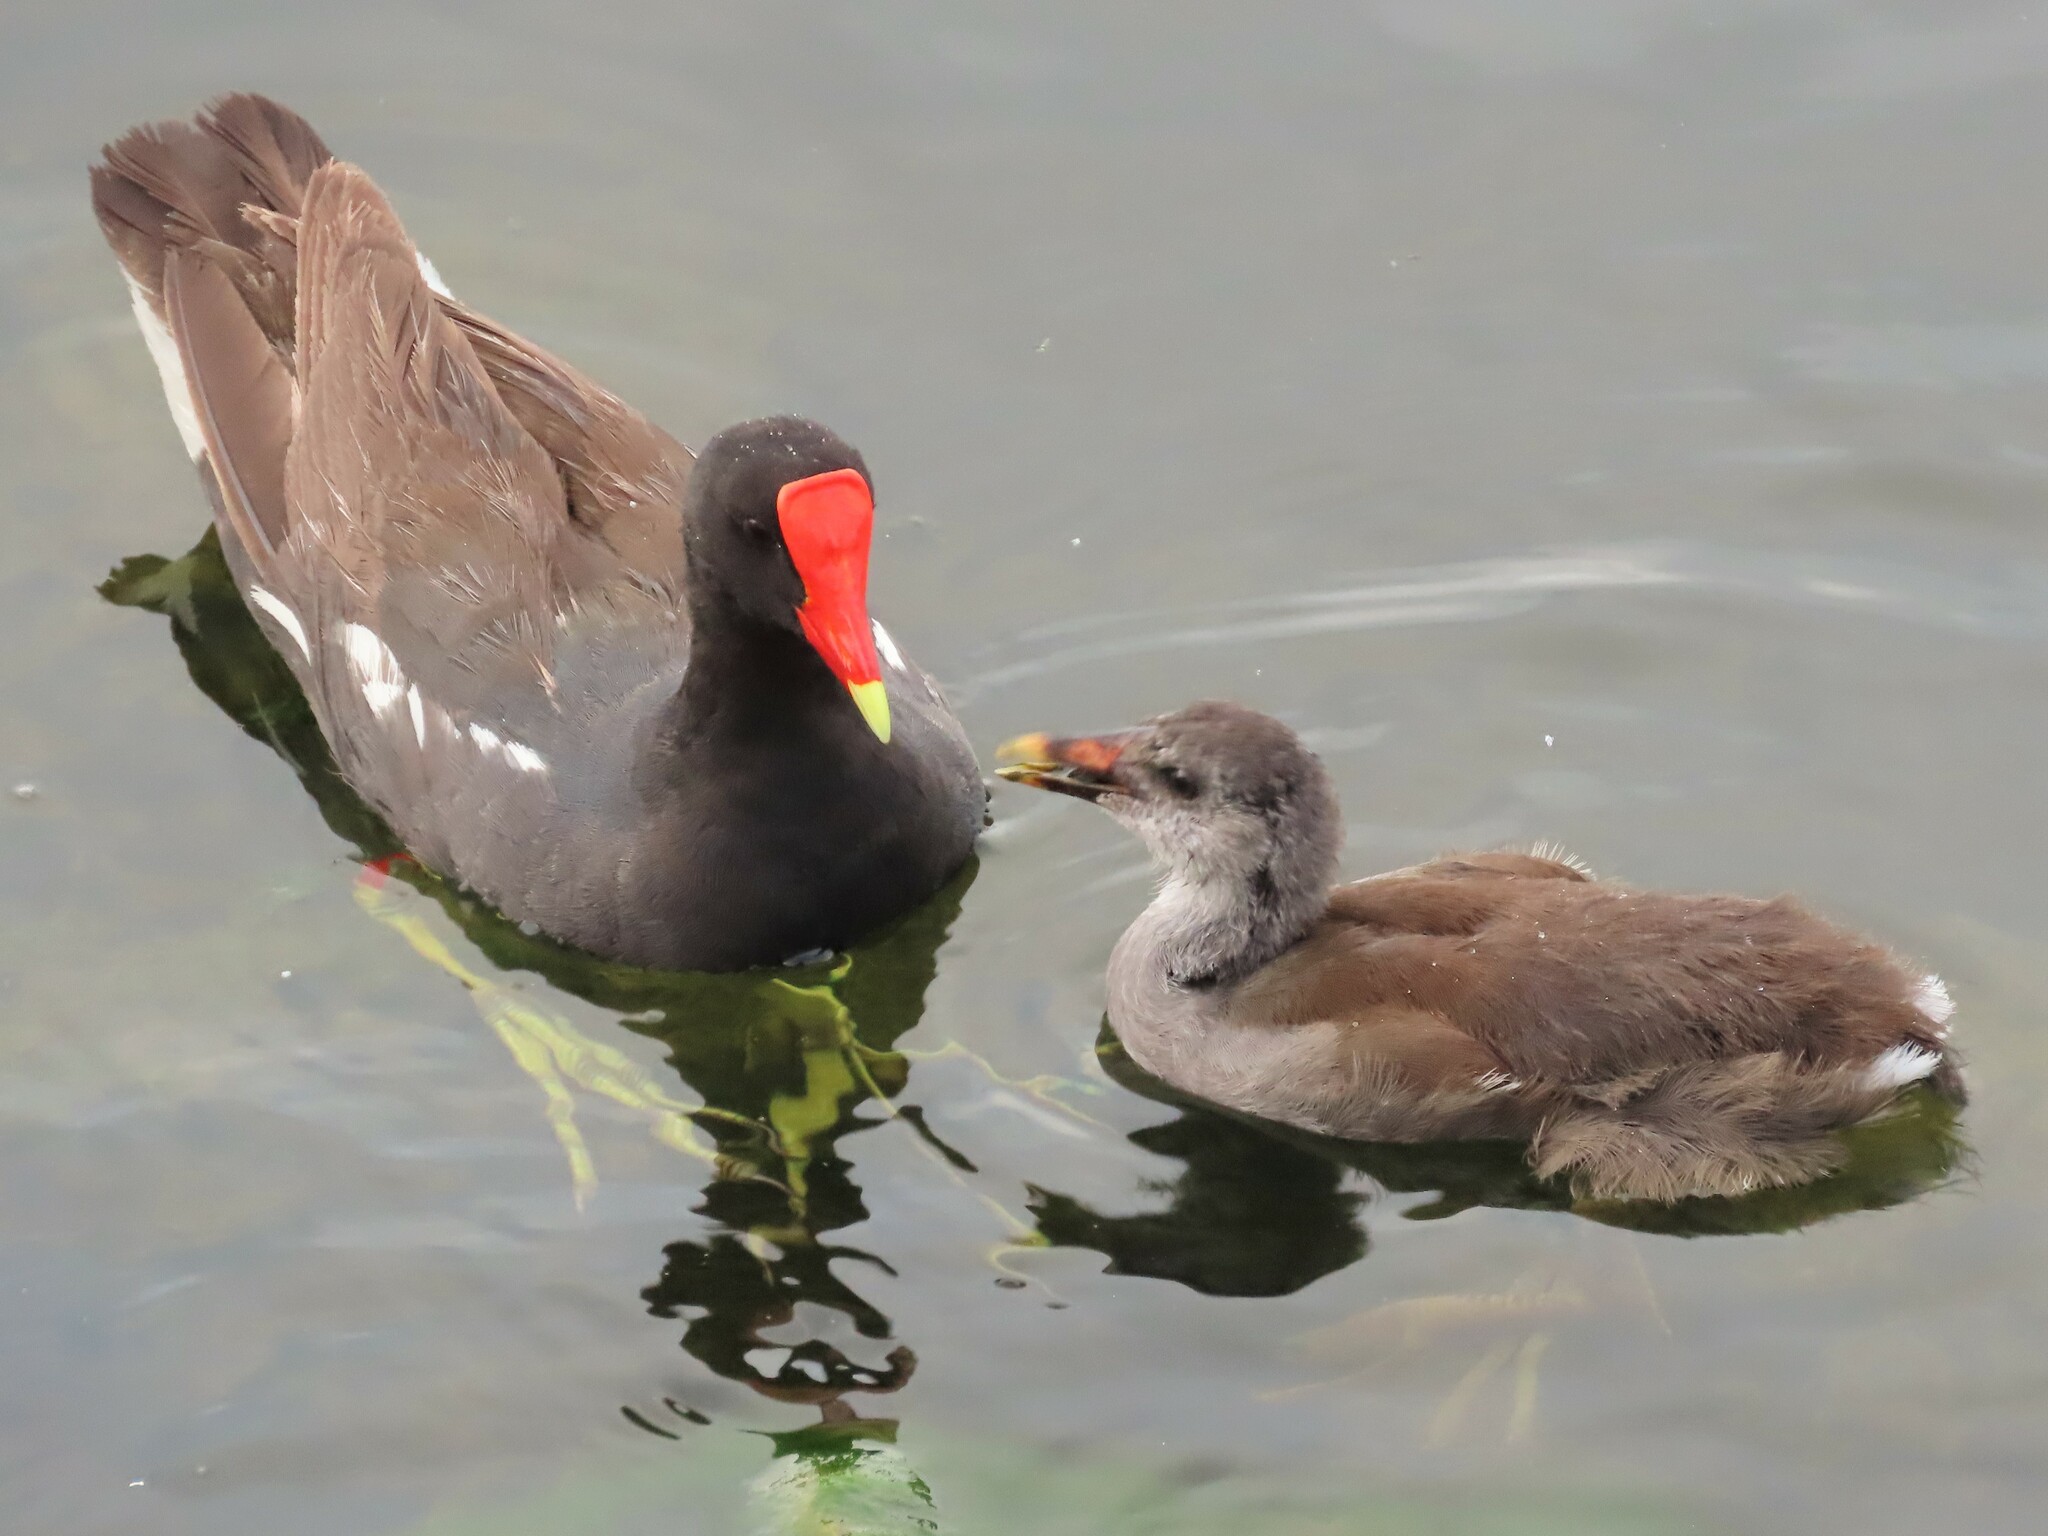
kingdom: Animalia
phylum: Chordata
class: Aves
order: Gruiformes
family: Rallidae
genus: Gallinula
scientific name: Gallinula chloropus
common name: Common moorhen
